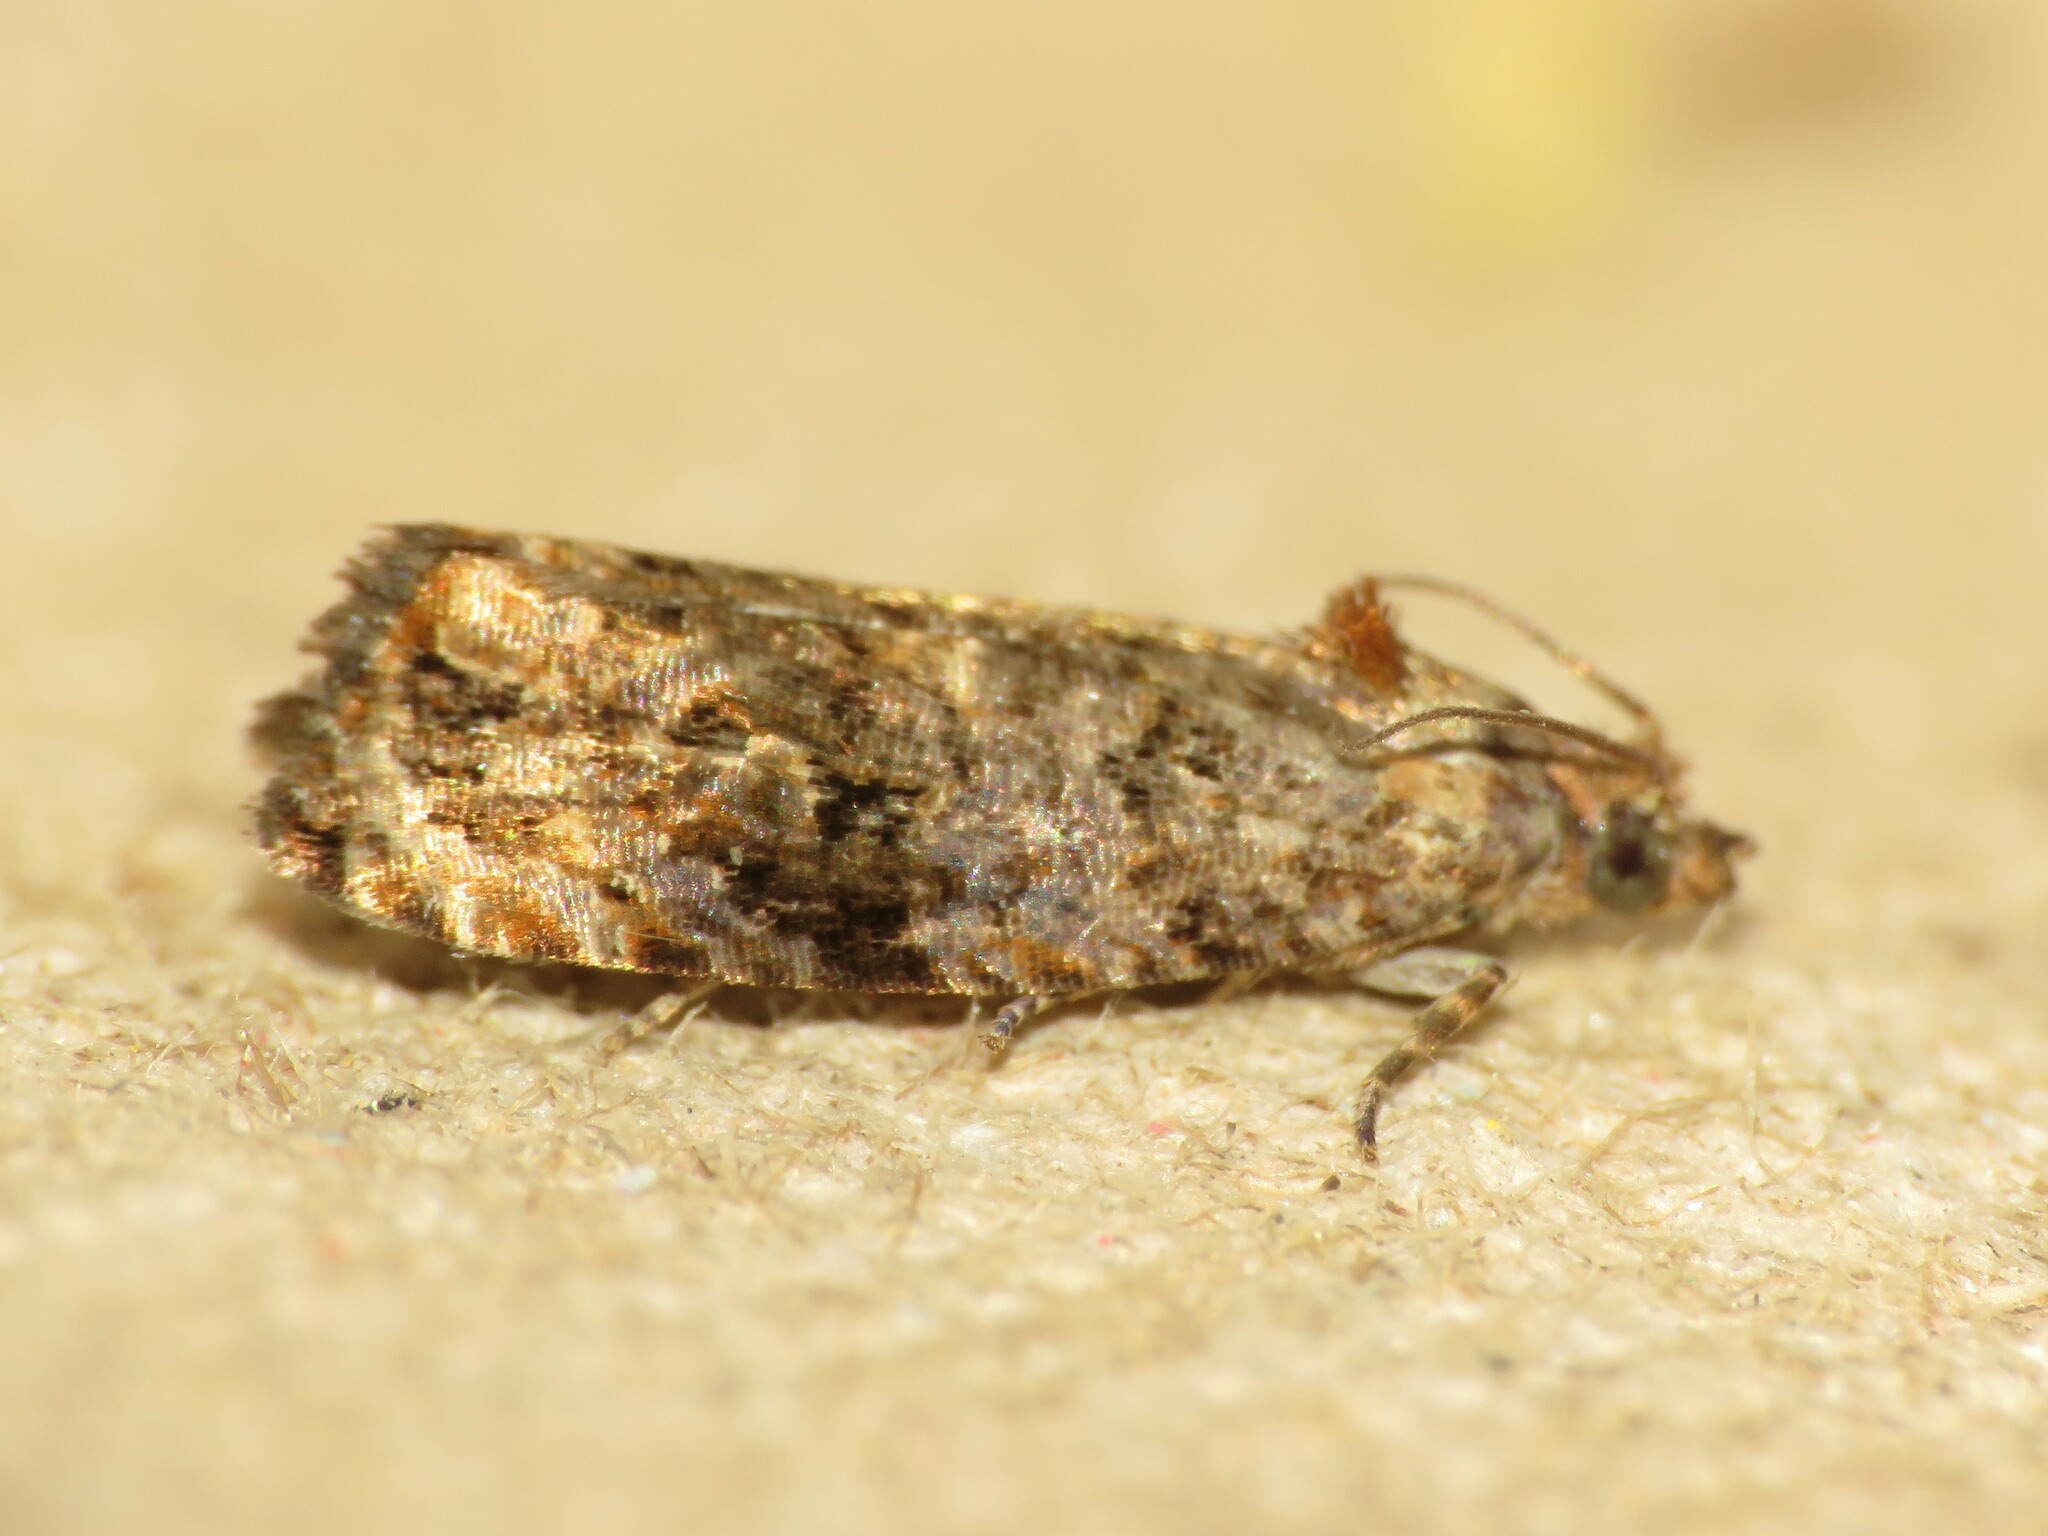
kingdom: Animalia
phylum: Arthropoda
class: Insecta
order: Lepidoptera
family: Tortricidae
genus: Endothenia
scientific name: Endothenia hebesana
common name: Verbena bud moth
